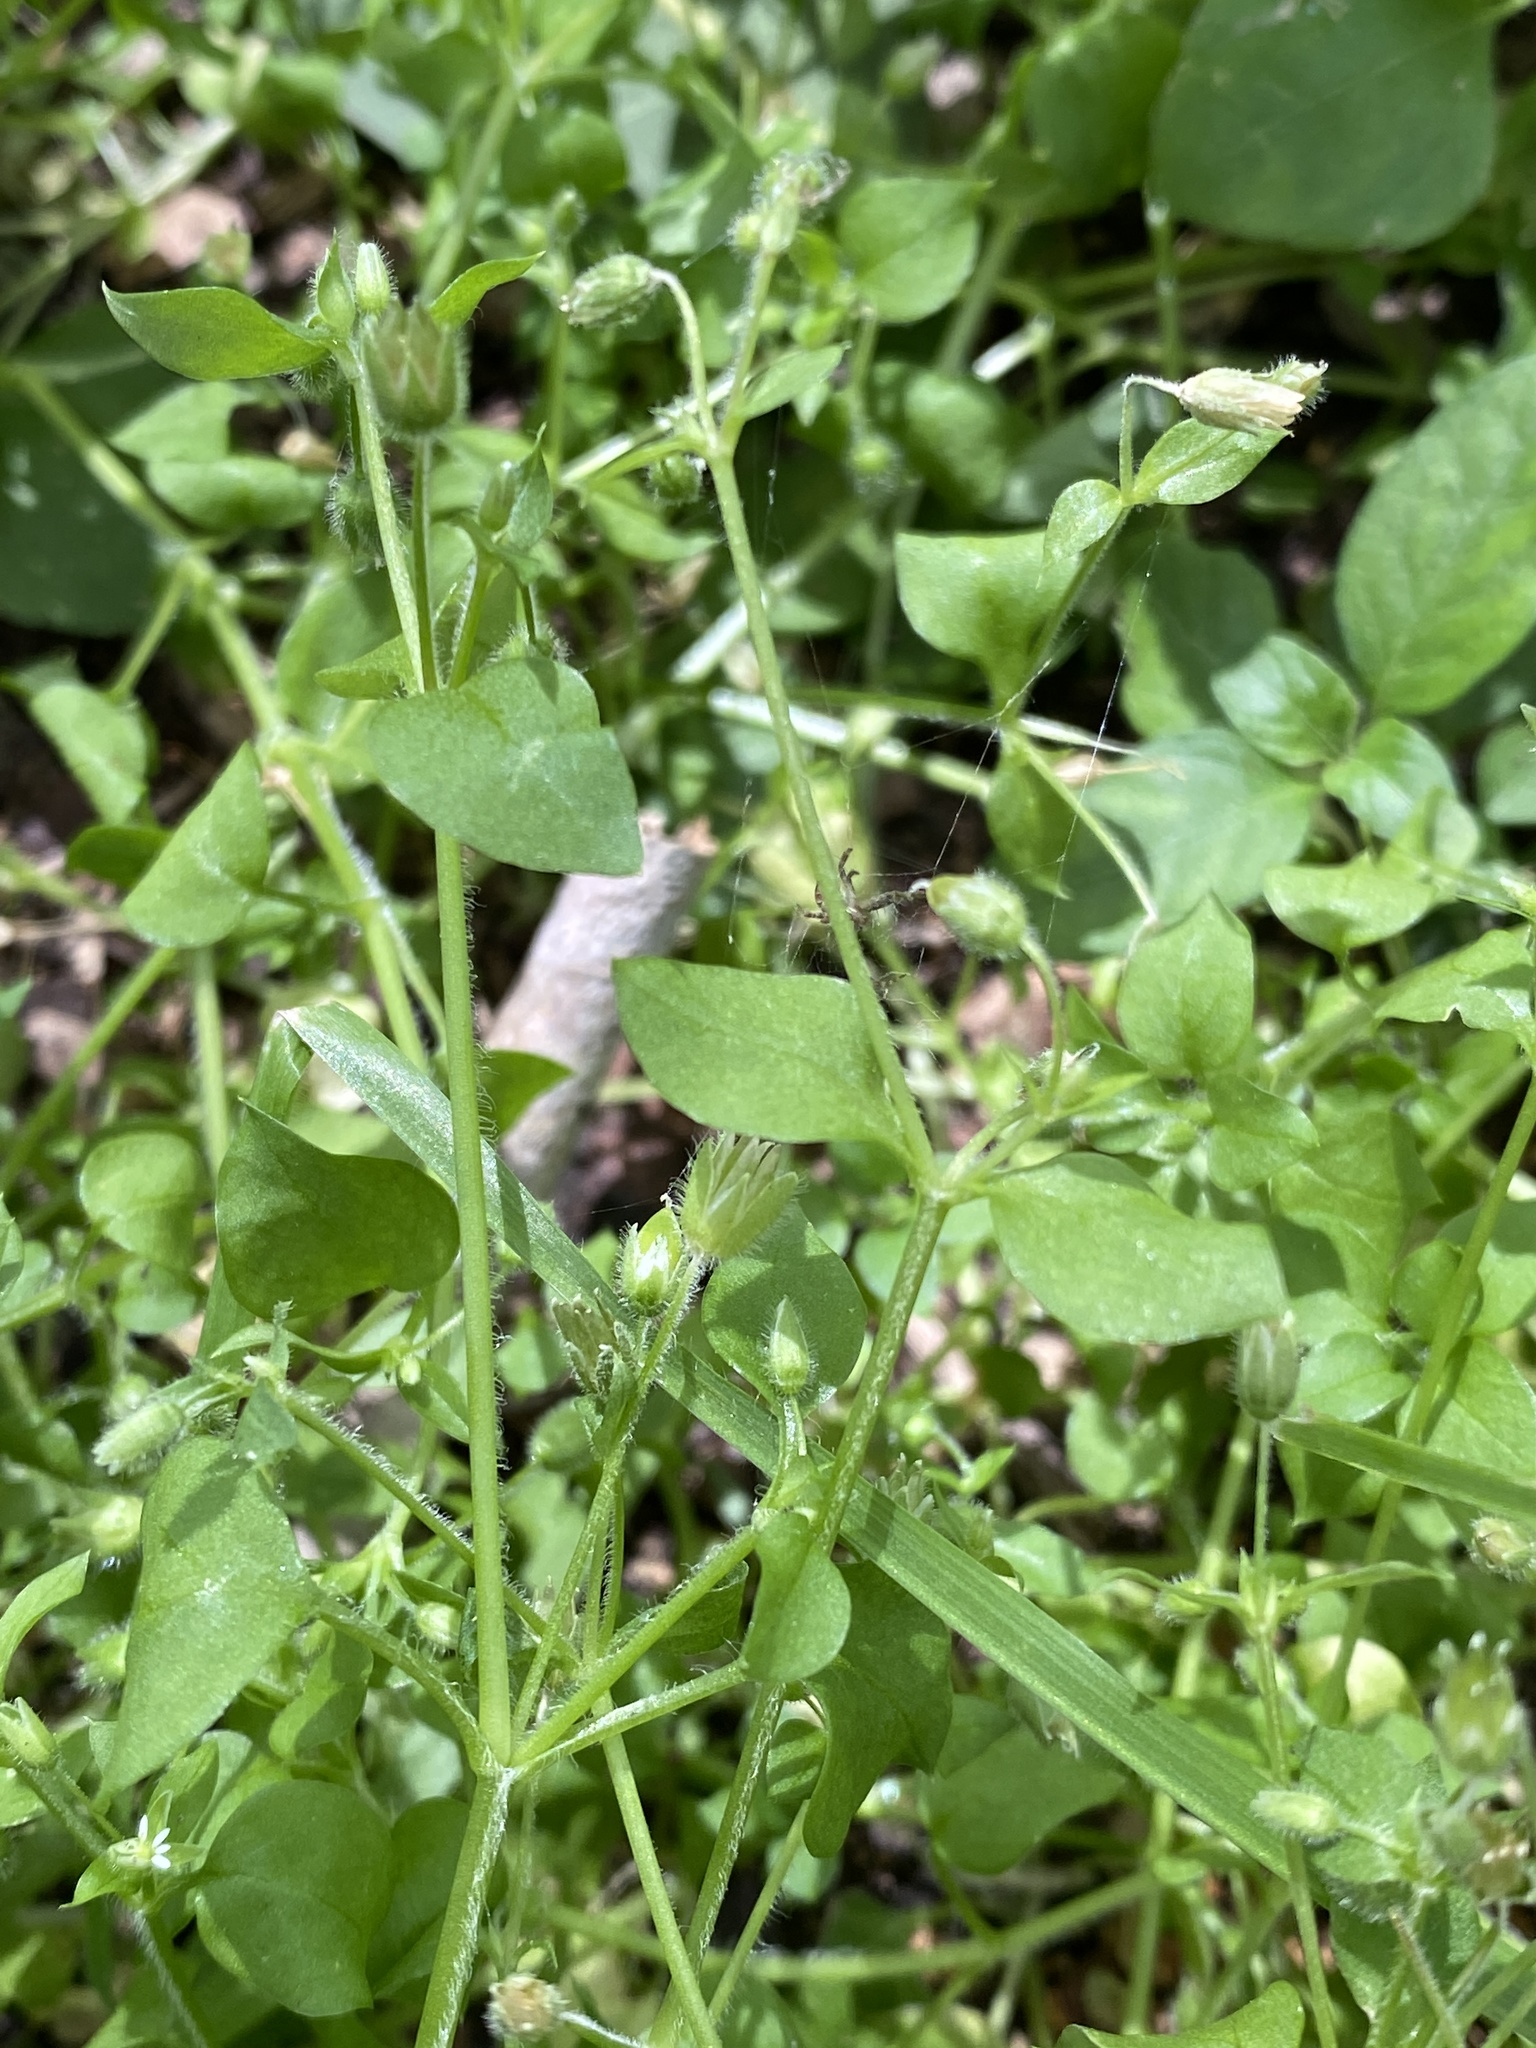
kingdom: Plantae
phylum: Tracheophyta
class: Magnoliopsida
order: Caryophyllales
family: Caryophyllaceae
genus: Stellaria
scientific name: Stellaria media
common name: Common chickweed
